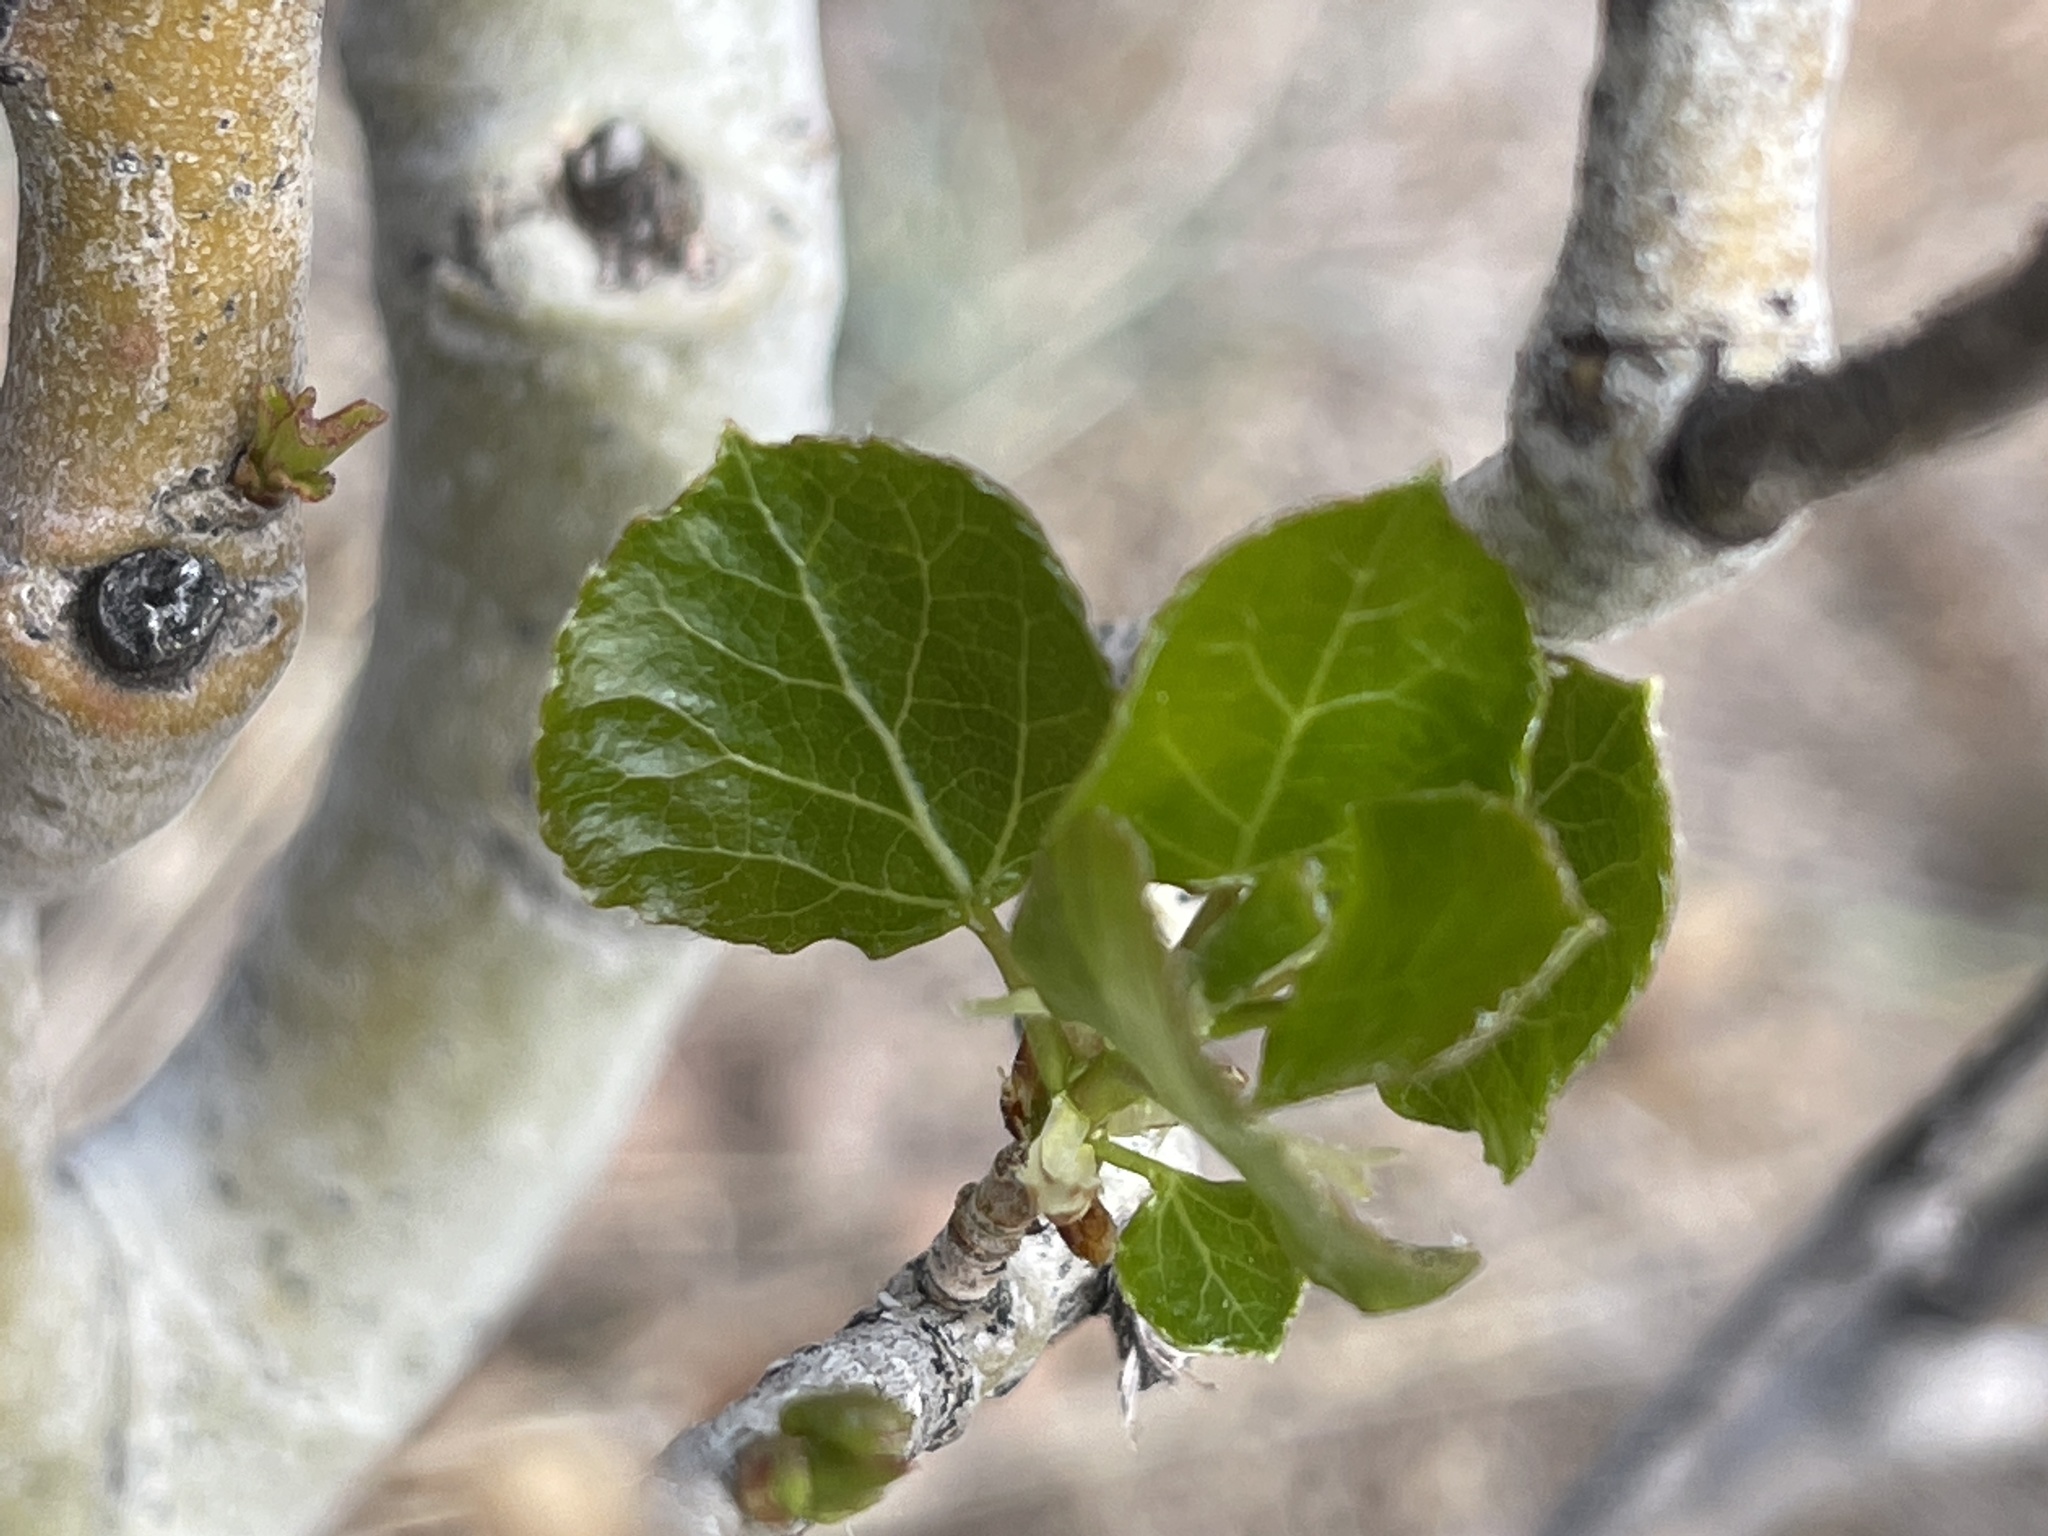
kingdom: Plantae
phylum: Tracheophyta
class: Magnoliopsida
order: Malpighiales
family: Salicaceae
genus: Populus
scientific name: Populus tremuloides
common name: Quaking aspen
